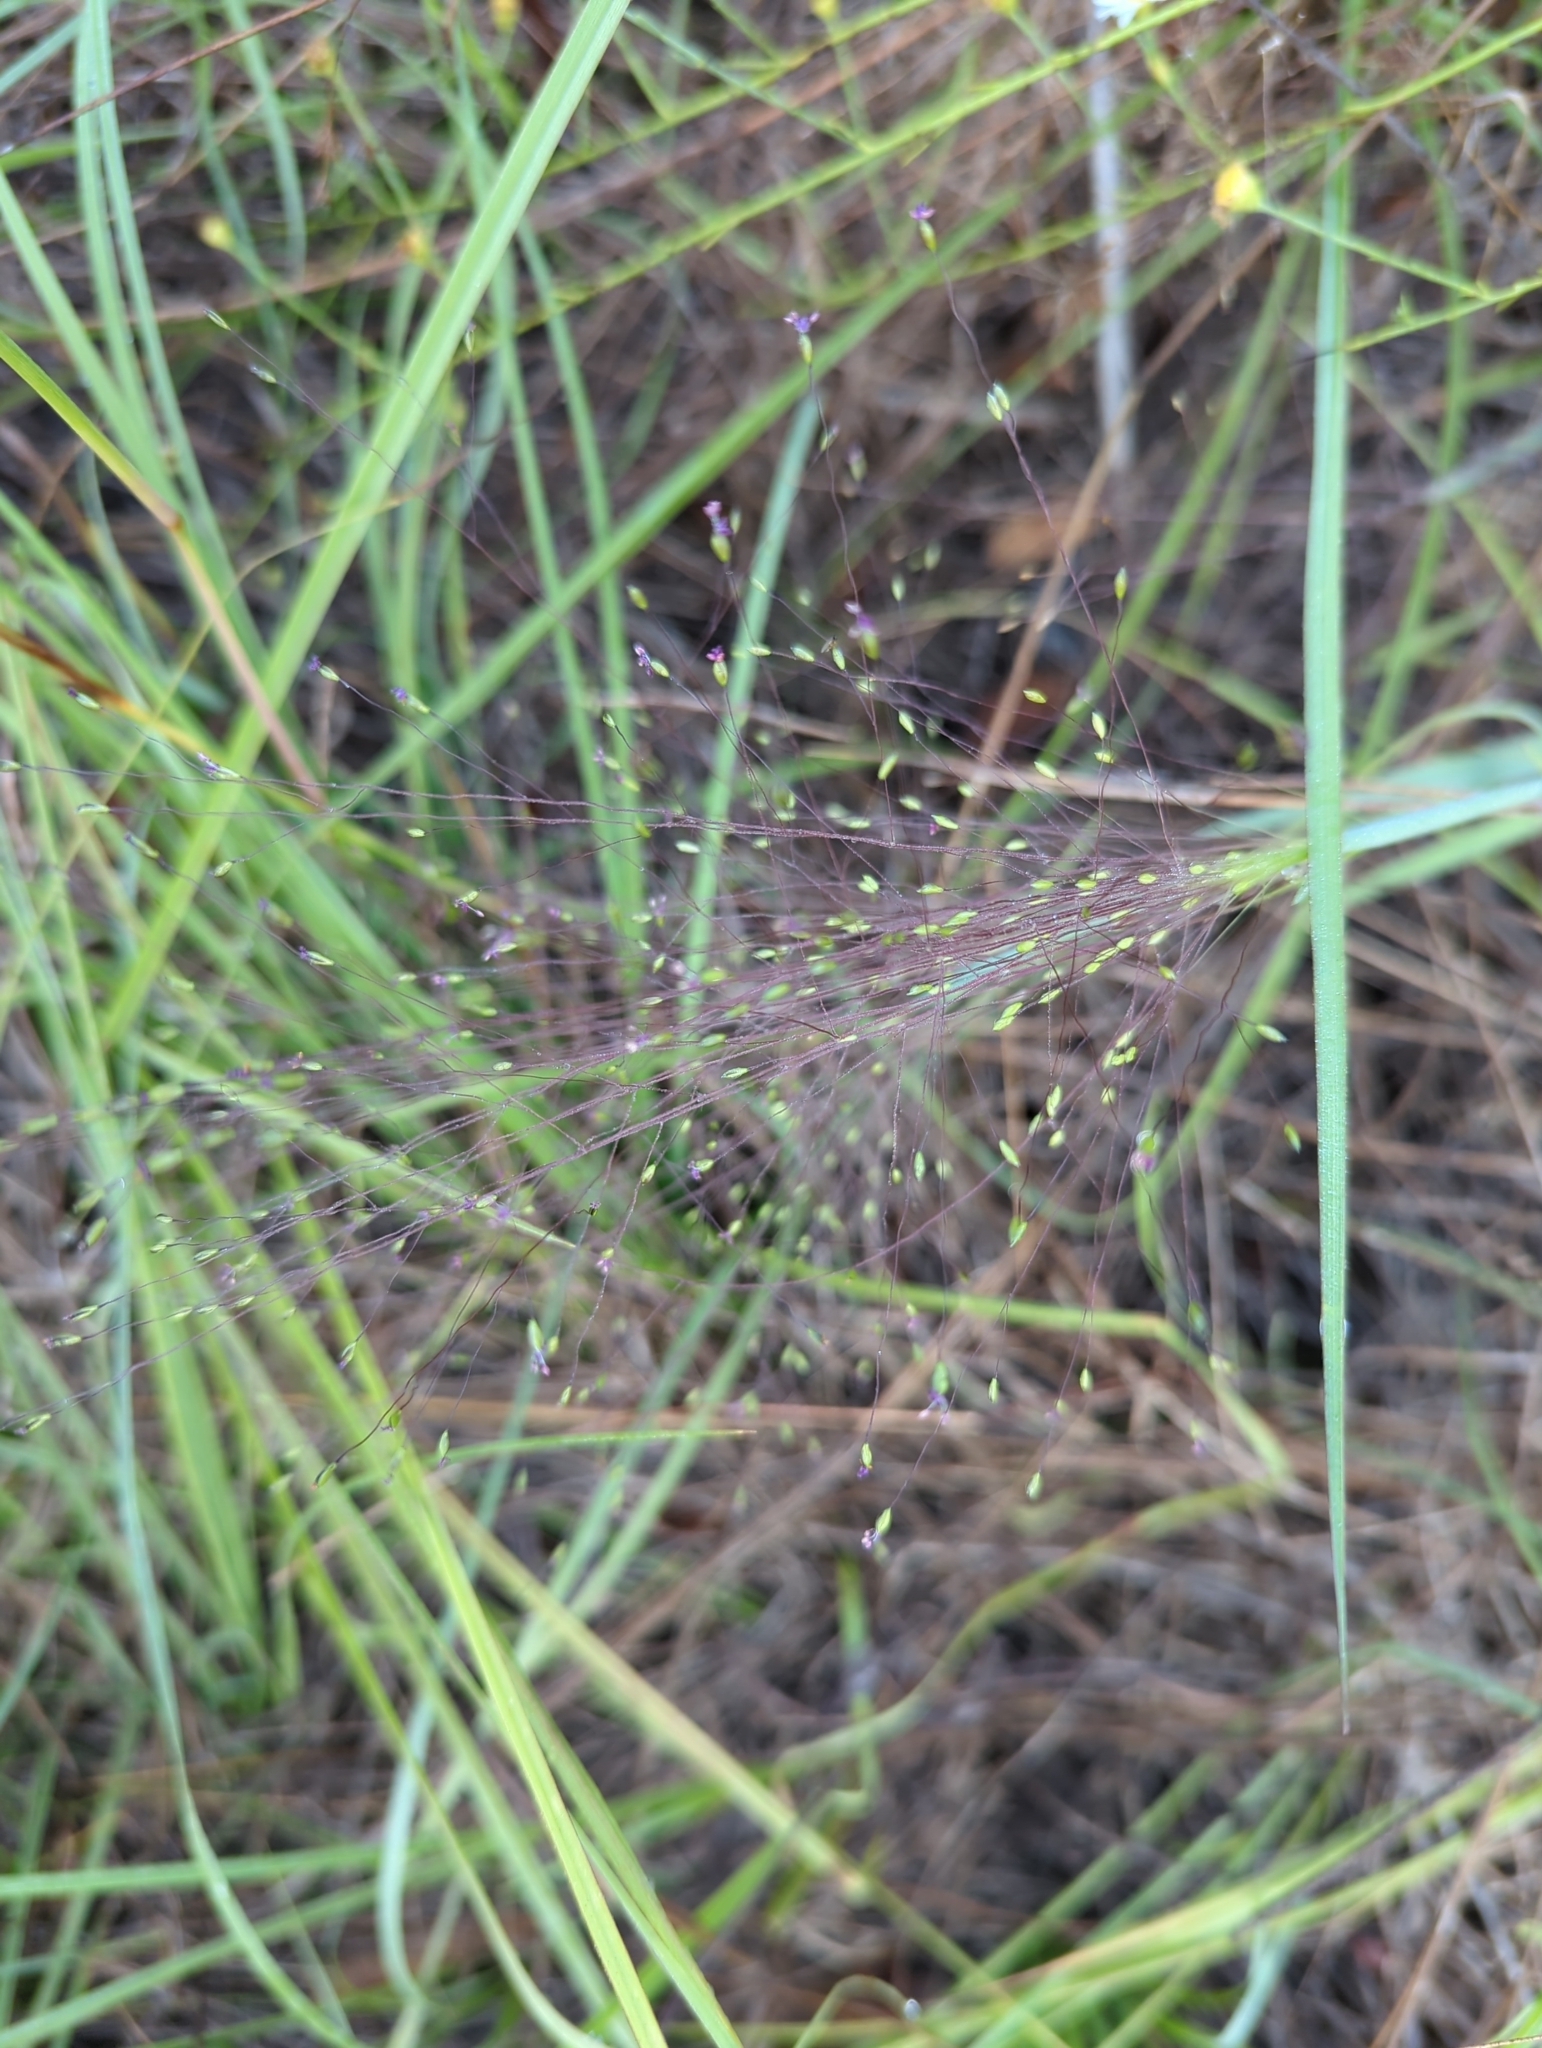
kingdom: Plantae
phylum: Tracheophyta
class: Liliopsida
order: Poales
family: Poaceae
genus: Digitaria
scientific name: Digitaria cognata
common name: Fall witchgrass
